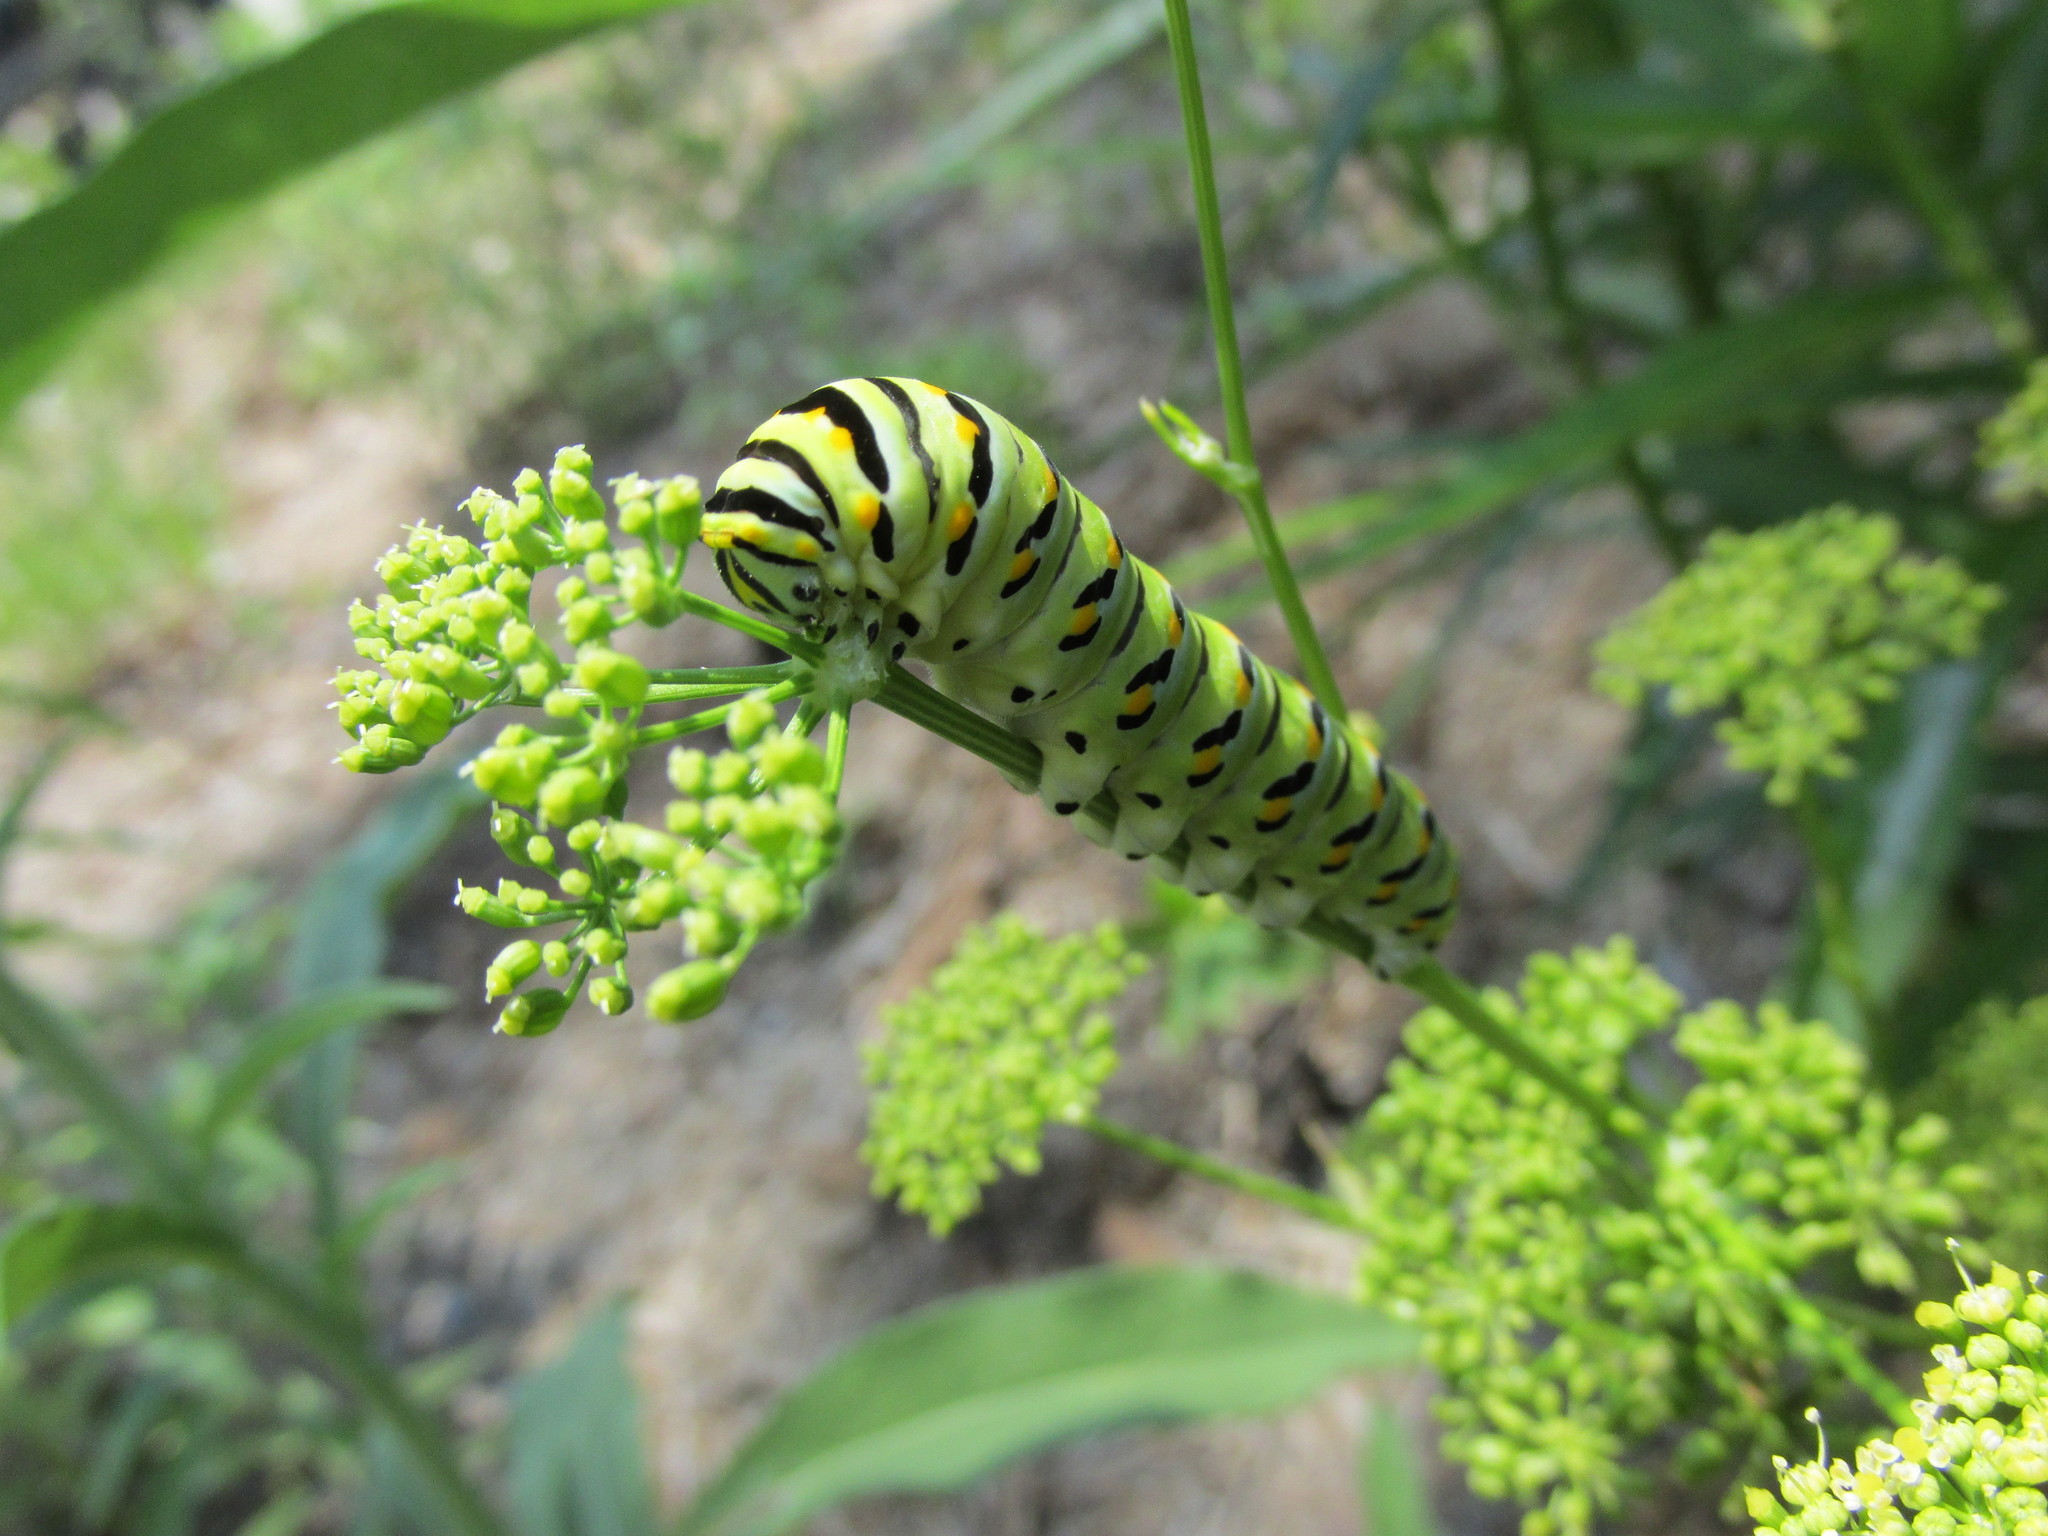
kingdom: Animalia
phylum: Arthropoda
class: Insecta
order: Lepidoptera
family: Papilionidae
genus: Papilio
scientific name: Papilio polyxenes
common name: Black swallowtail
